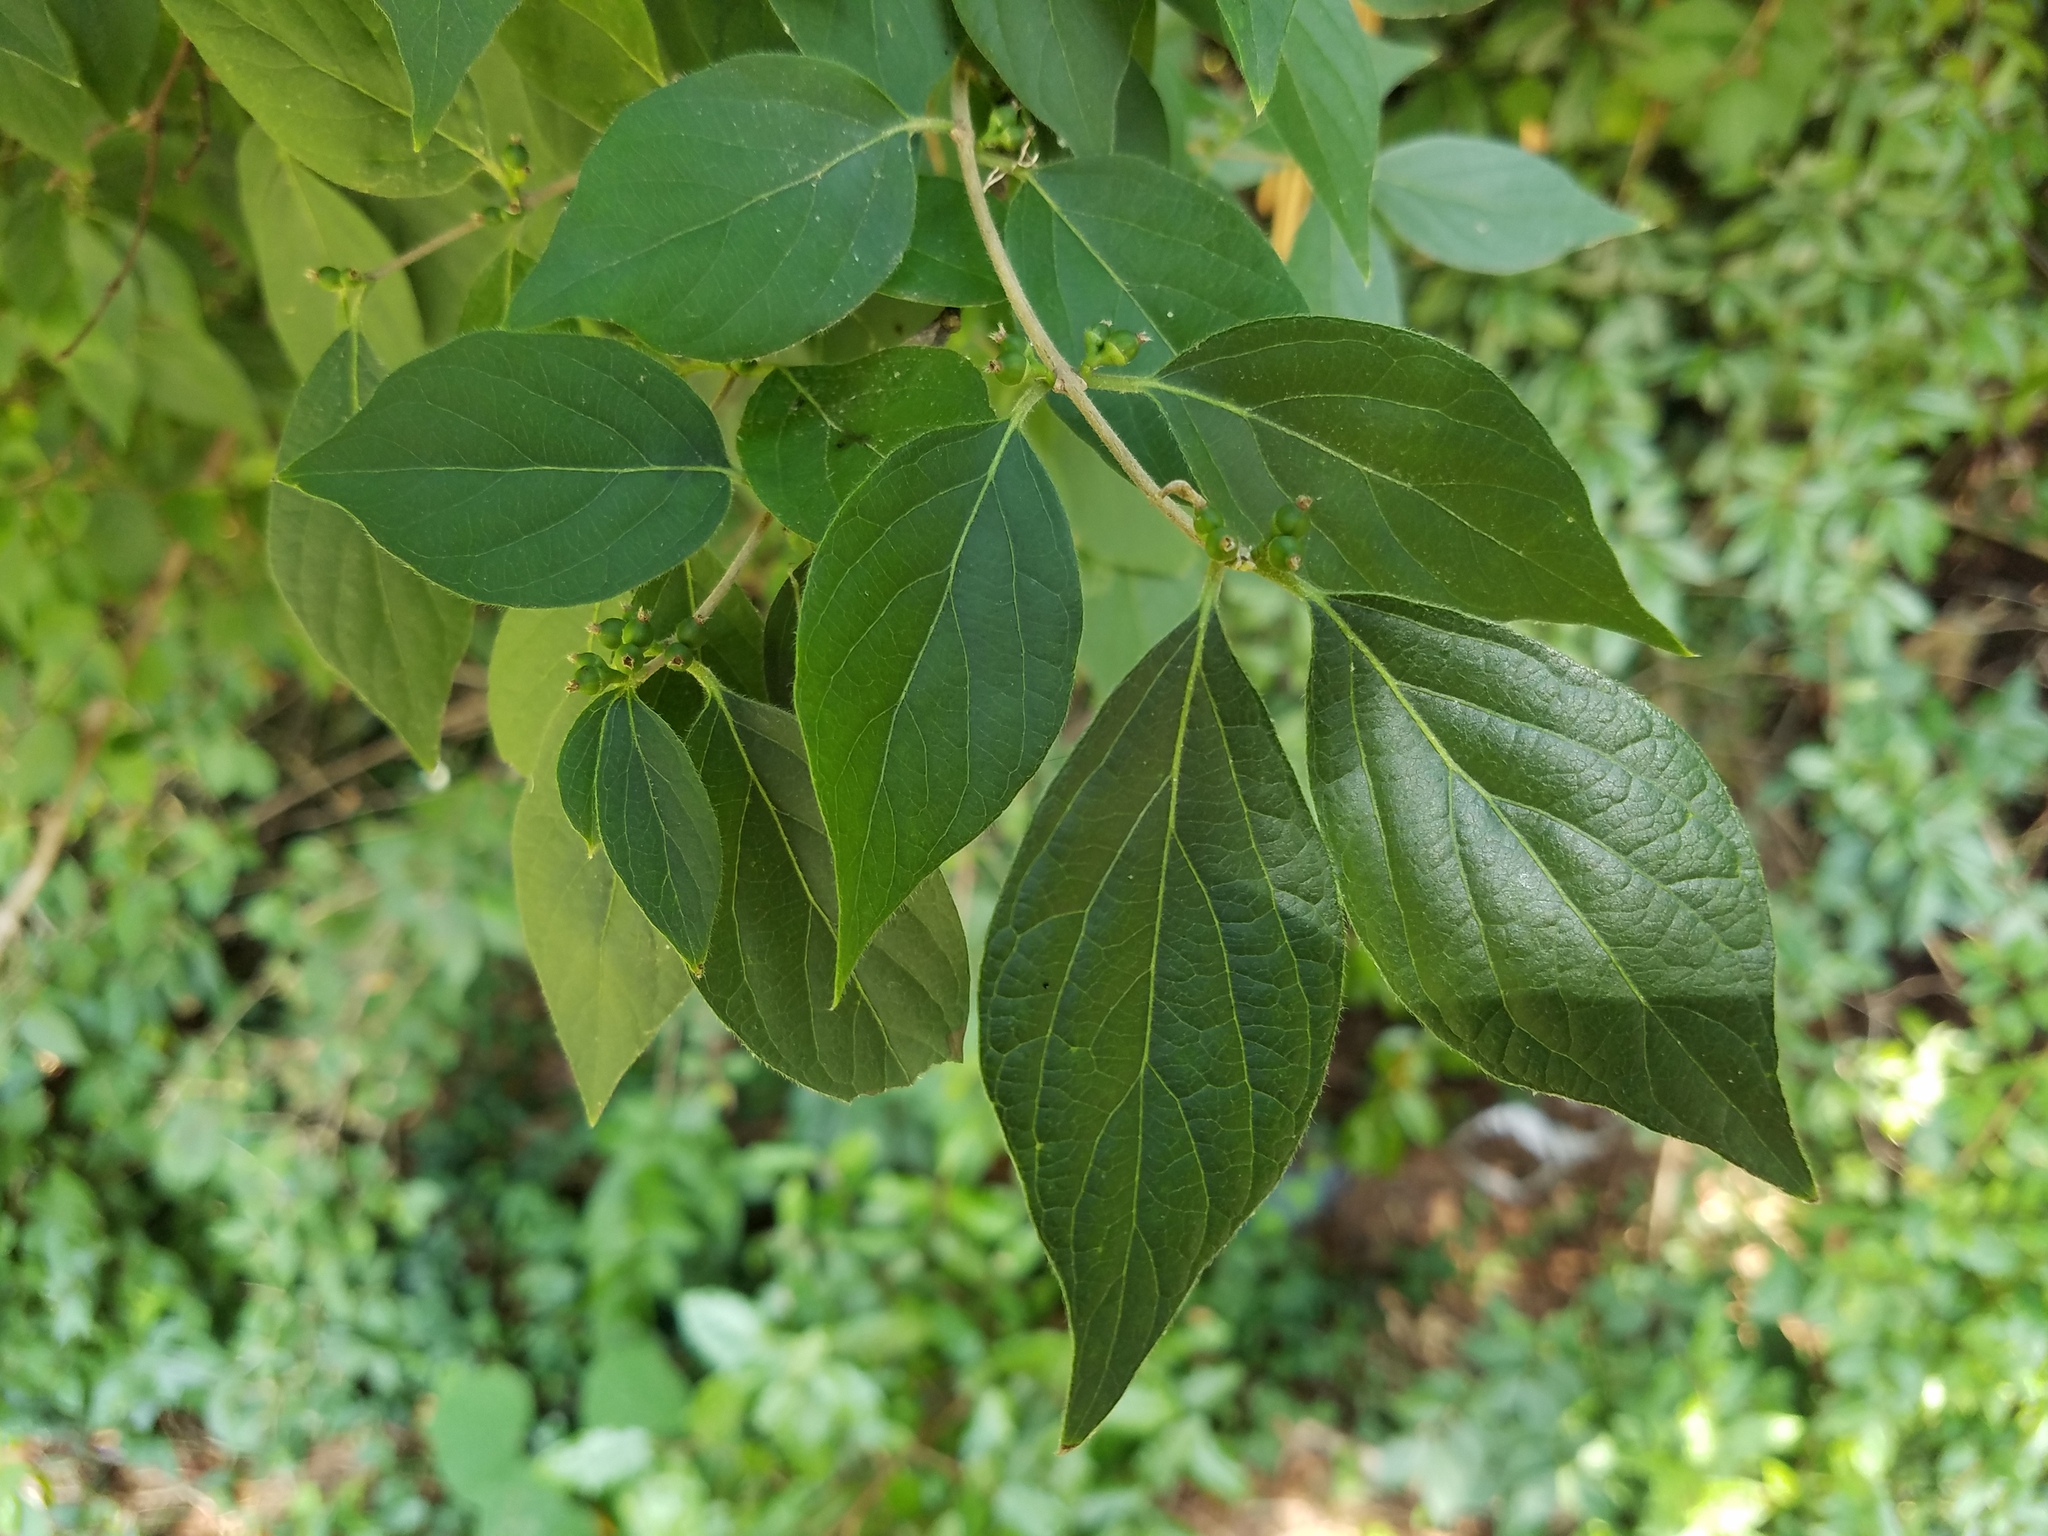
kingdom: Plantae
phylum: Tracheophyta
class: Magnoliopsida
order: Dipsacales
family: Caprifoliaceae
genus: Lonicera
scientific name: Lonicera maackii
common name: Amur honeysuckle
